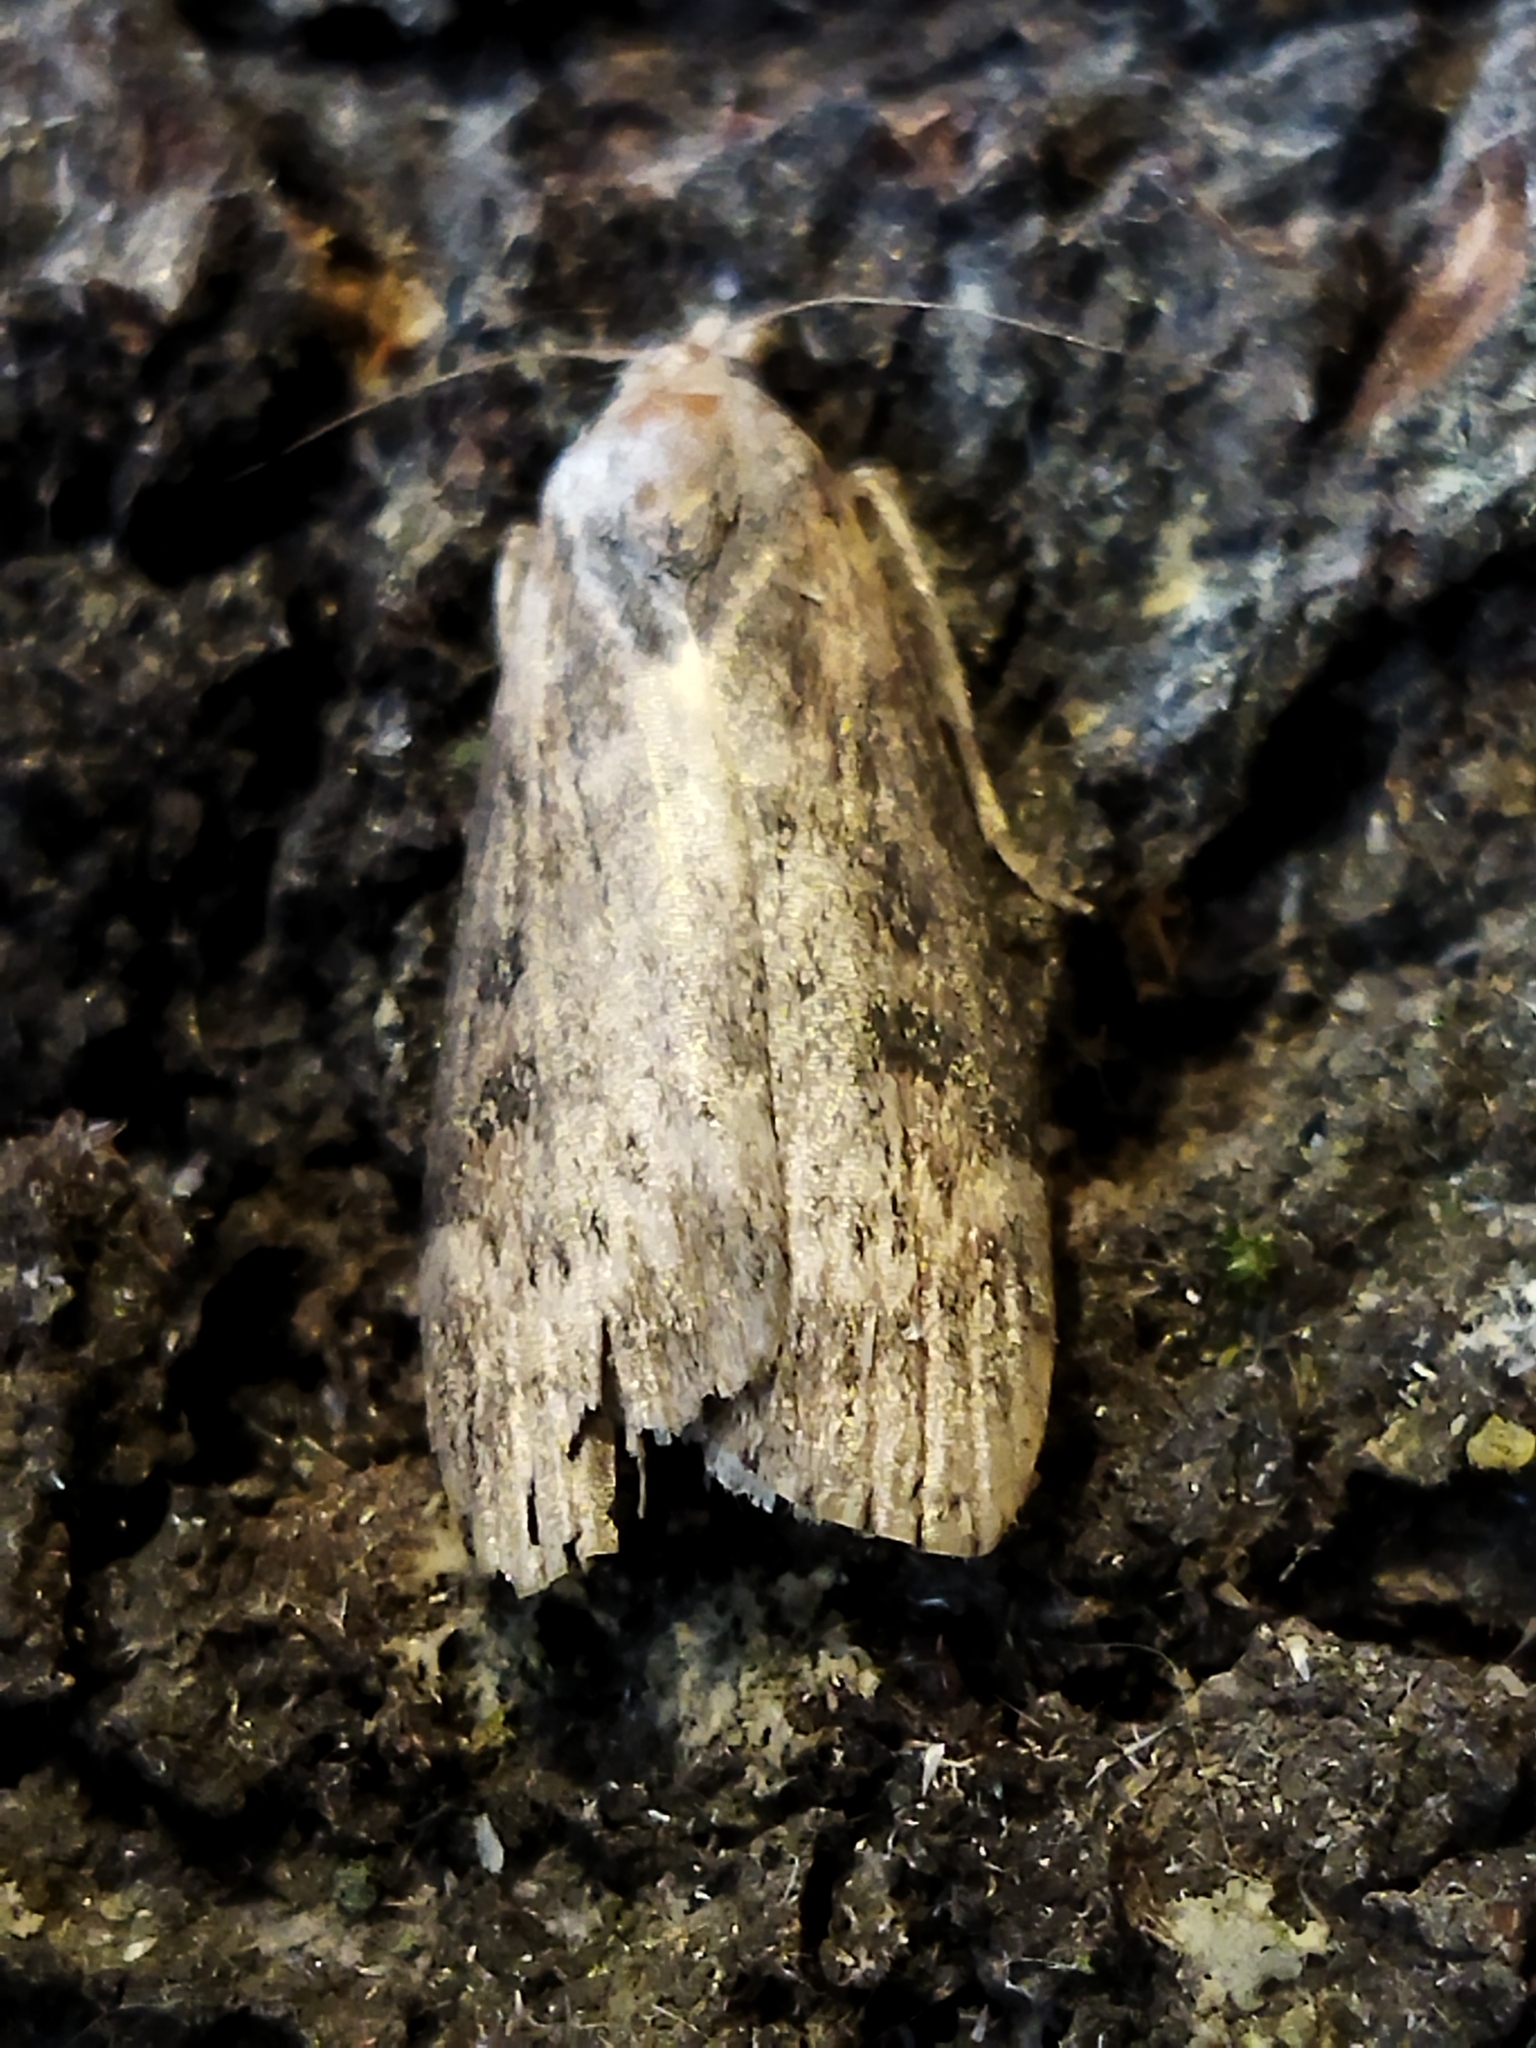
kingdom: Animalia
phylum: Arthropoda
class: Insecta
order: Lepidoptera
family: Pyralidae
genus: Lamoria
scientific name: Lamoria anella
